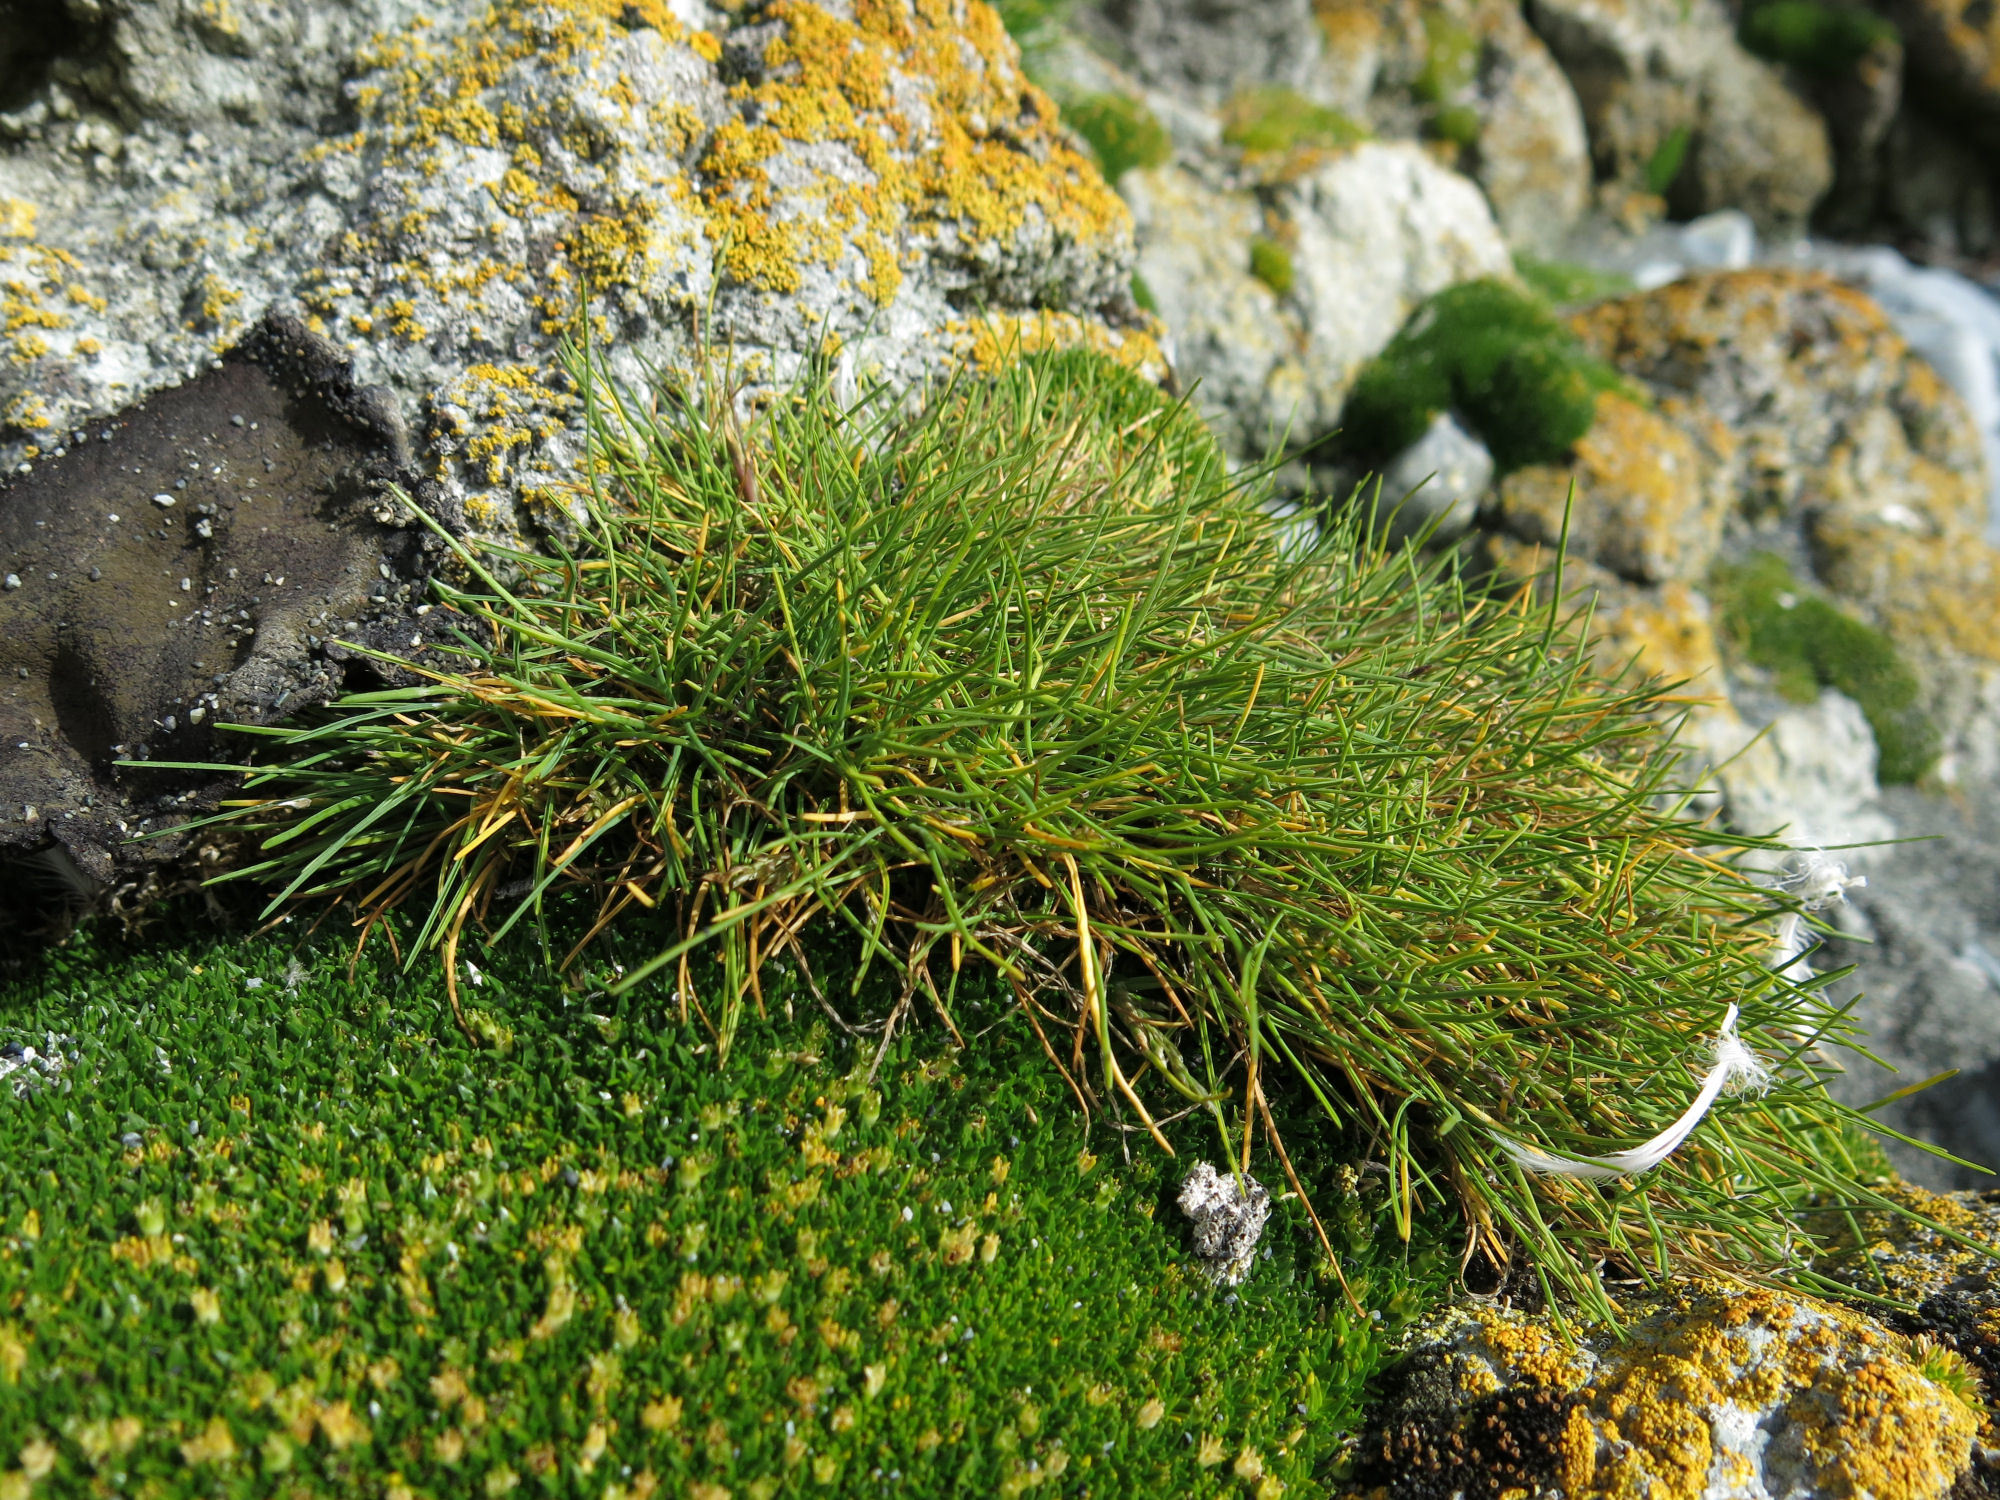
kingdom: Plantae
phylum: Tracheophyta
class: Liliopsida
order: Poales
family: Poaceae
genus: Puccinellia
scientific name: Puccinellia macquariensis
